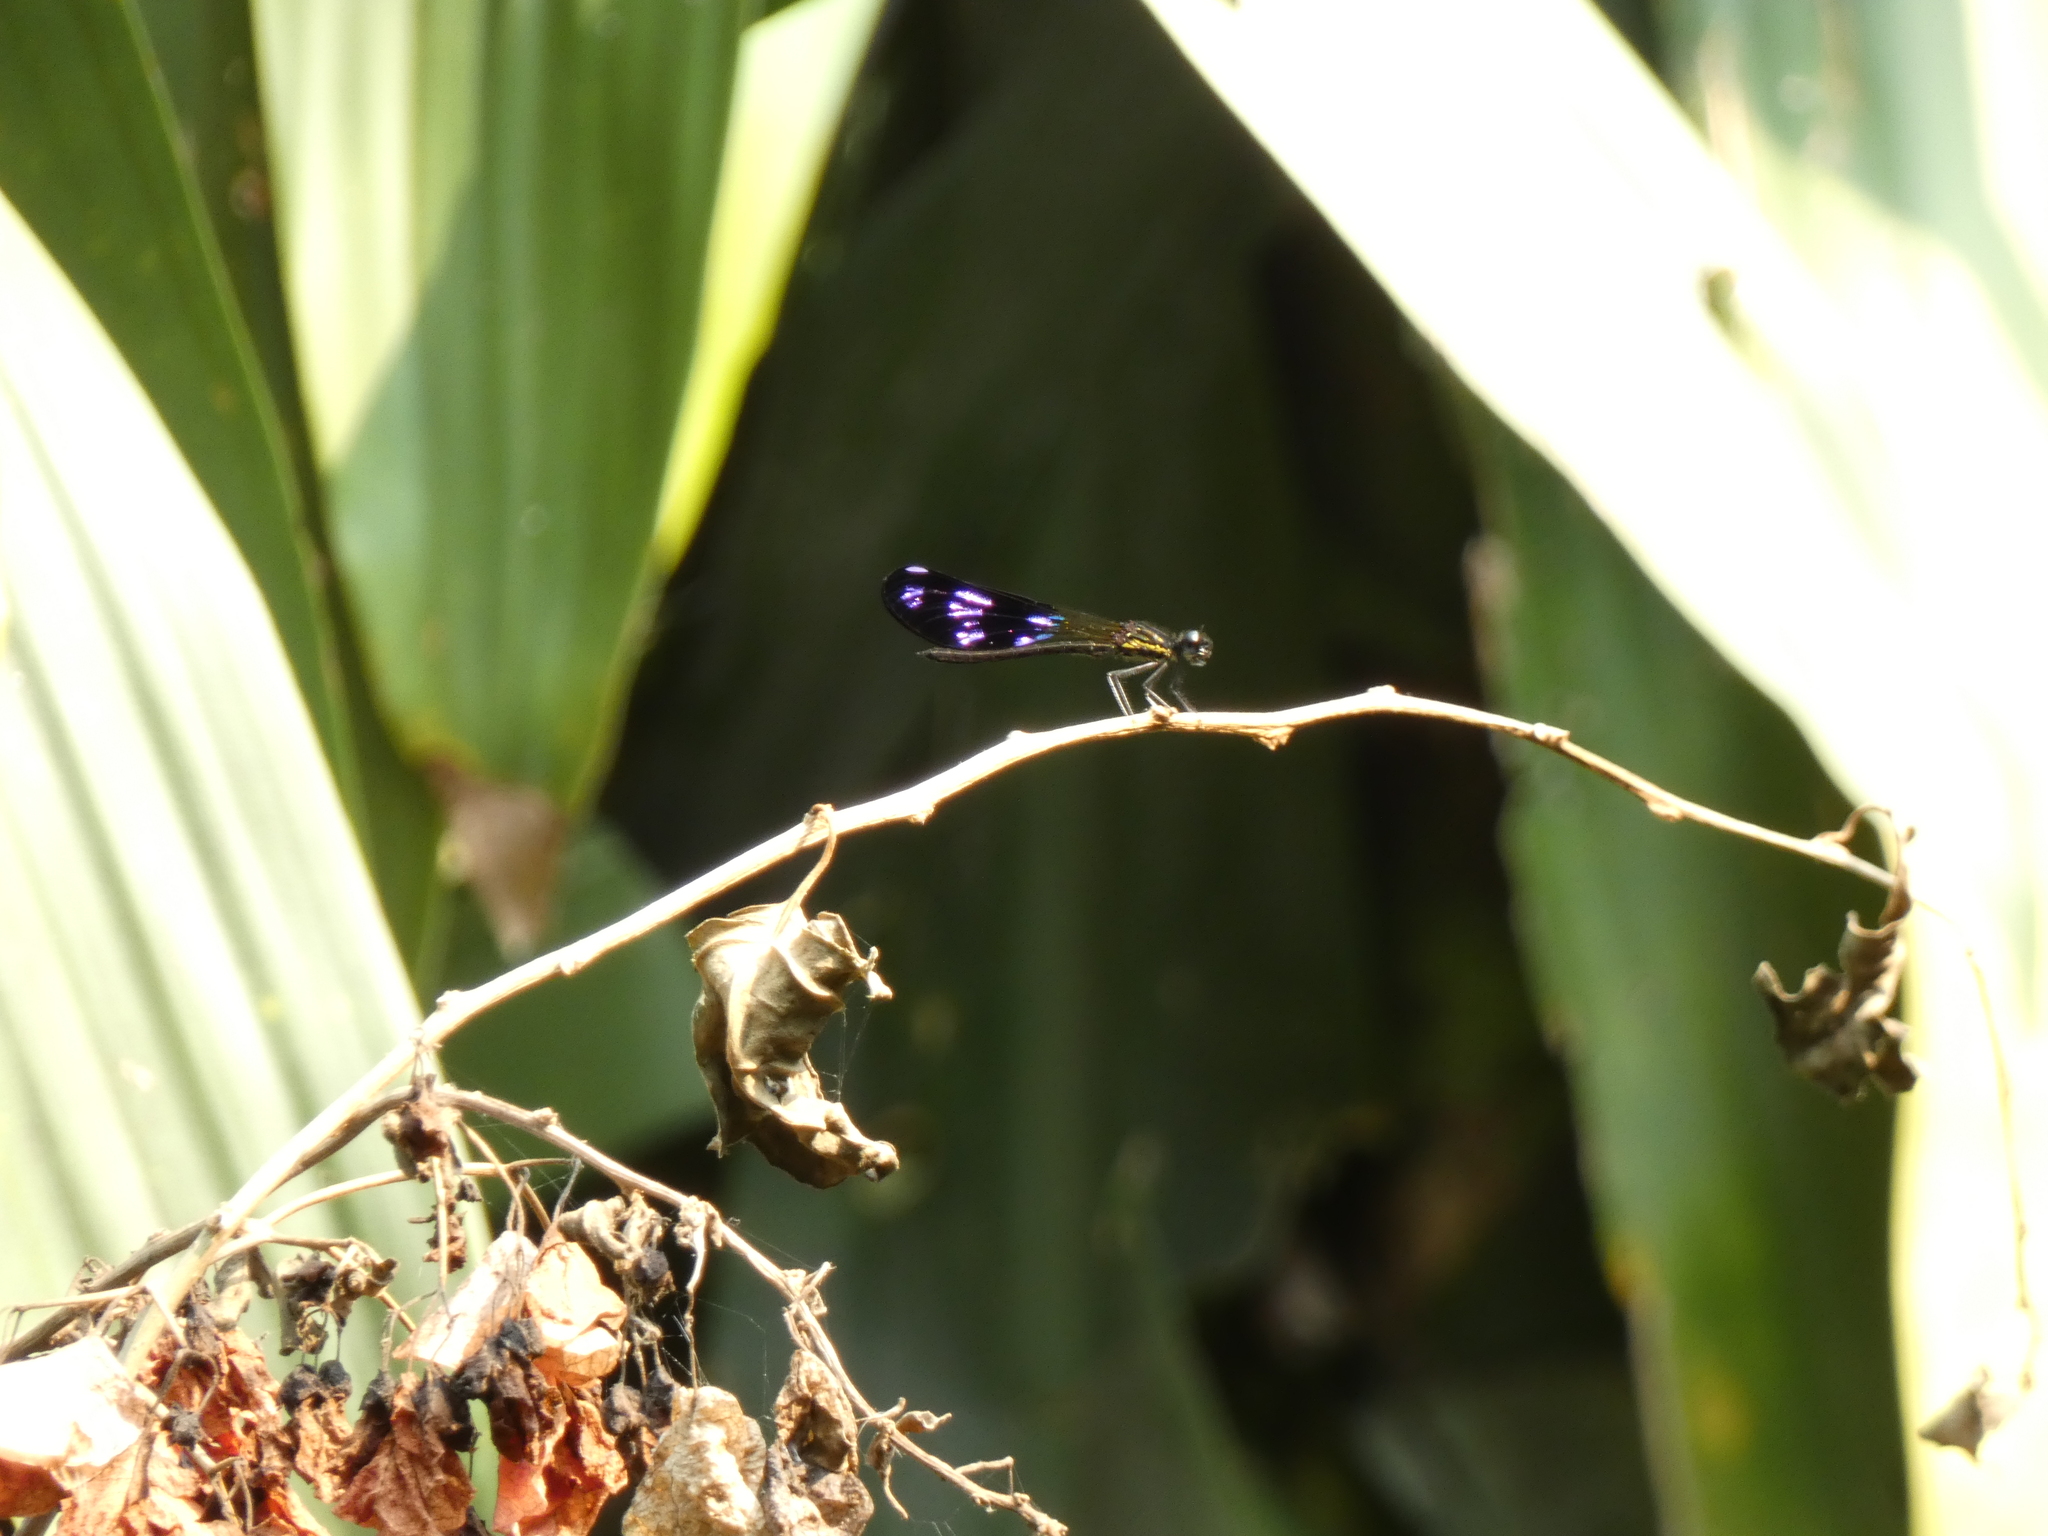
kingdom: Animalia
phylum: Arthropoda
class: Insecta
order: Odonata
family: Chlorocyphidae
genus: Aristocypha
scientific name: Aristocypha fenestrella
